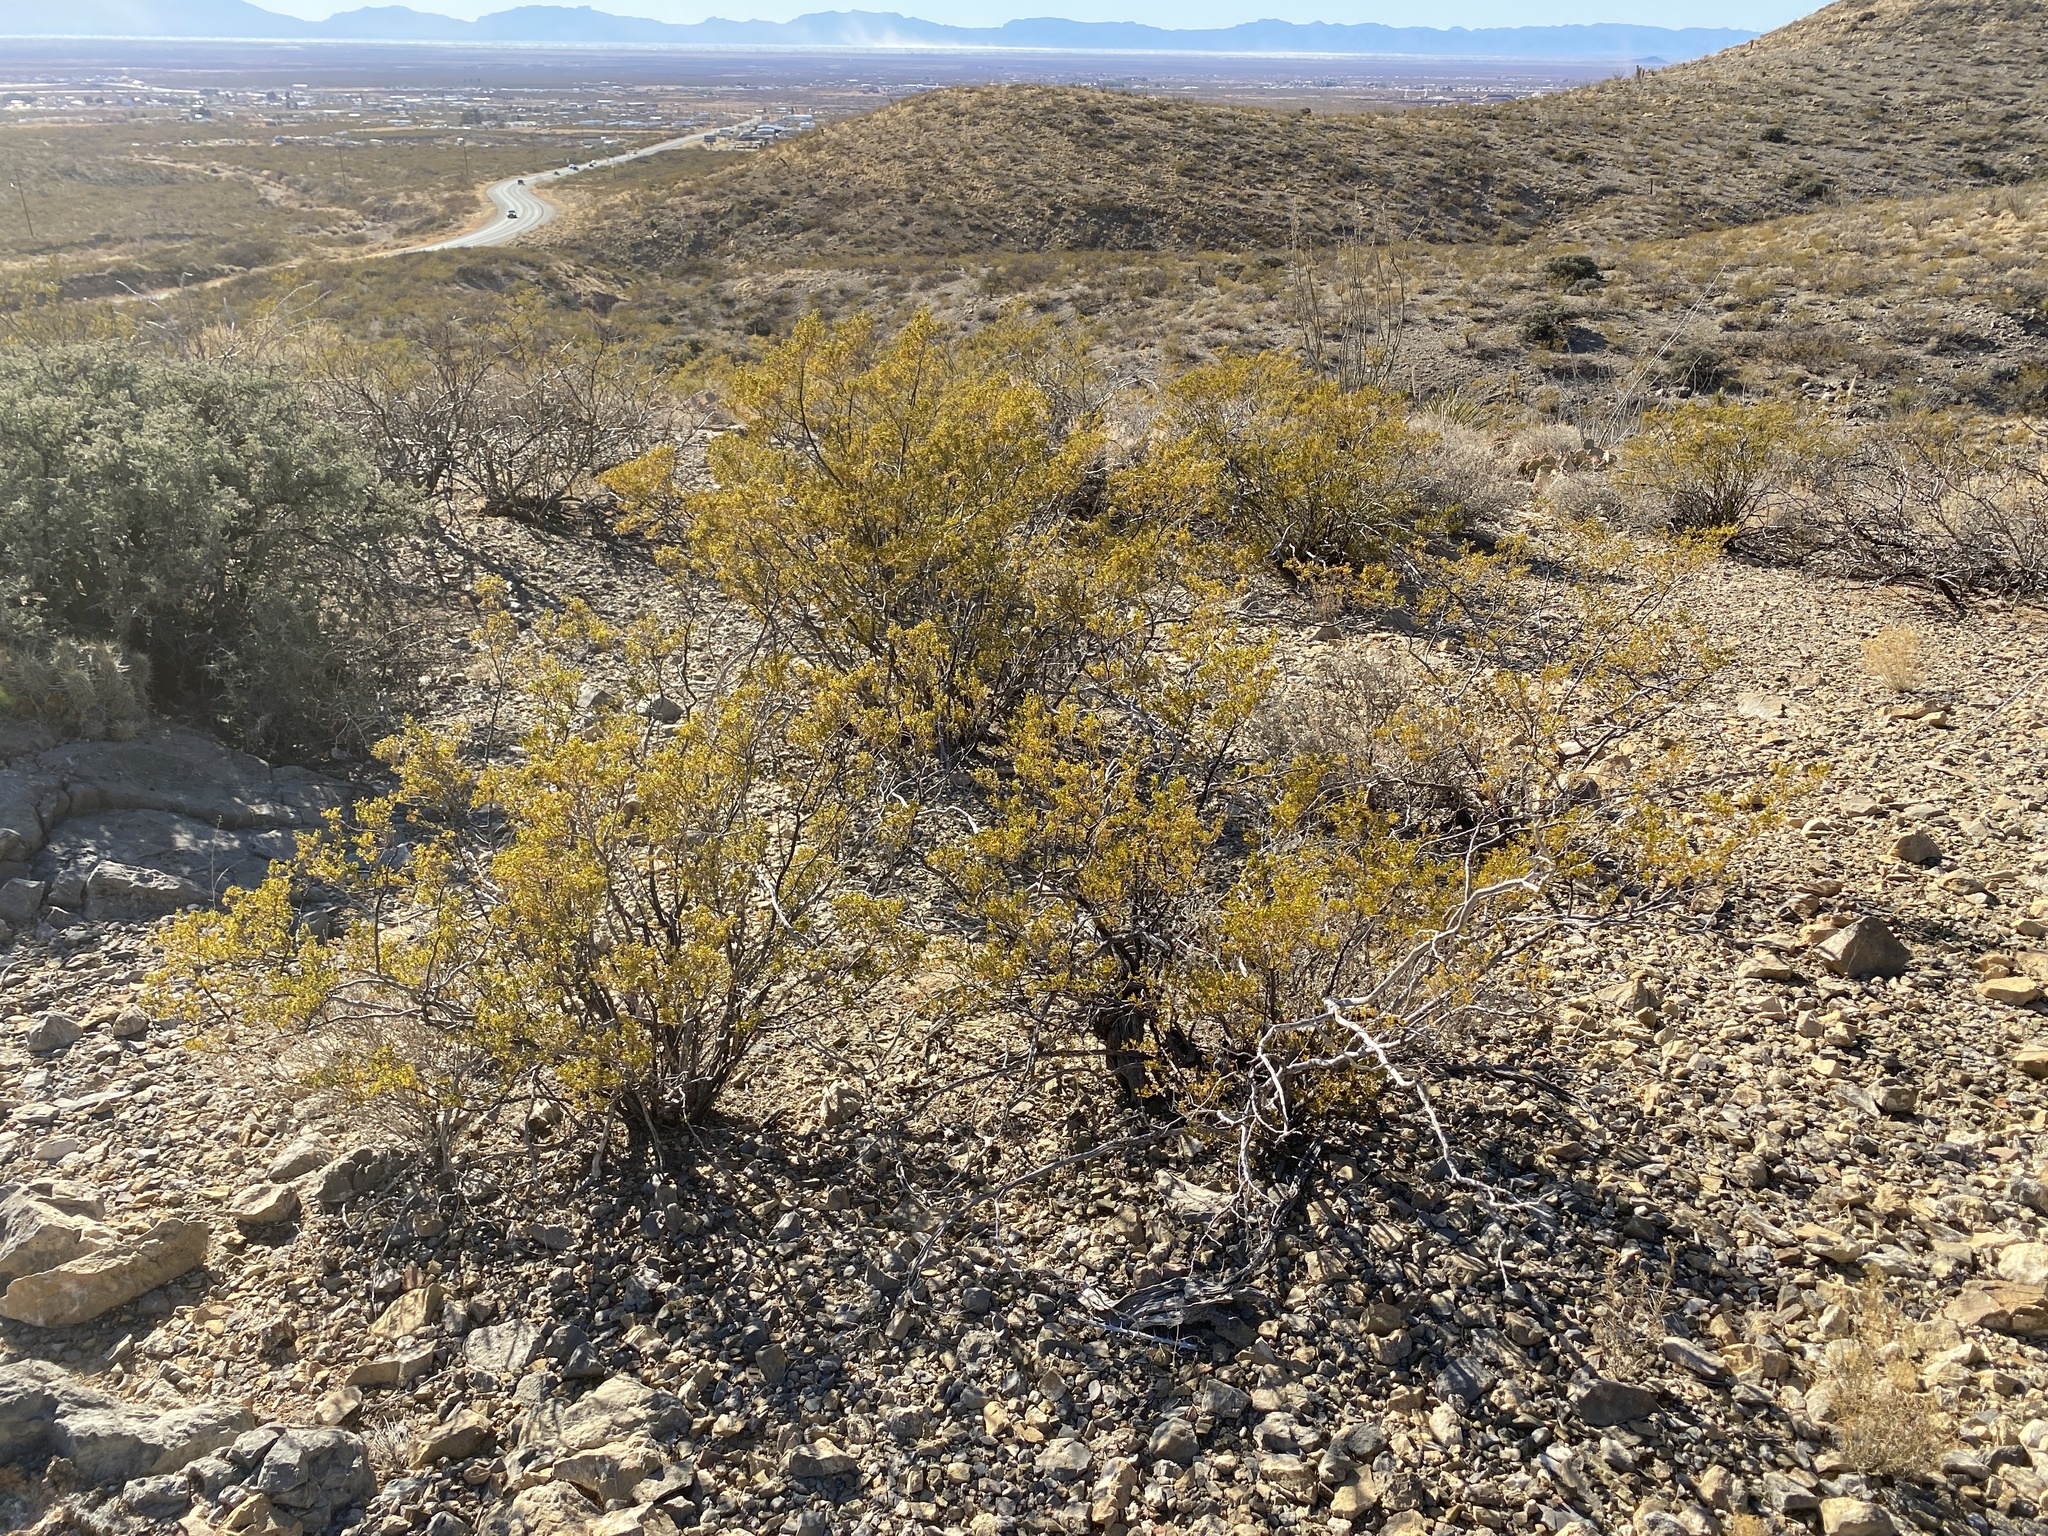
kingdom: Plantae
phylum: Tracheophyta
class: Magnoliopsida
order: Zygophyllales
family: Zygophyllaceae
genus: Larrea
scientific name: Larrea tridentata
